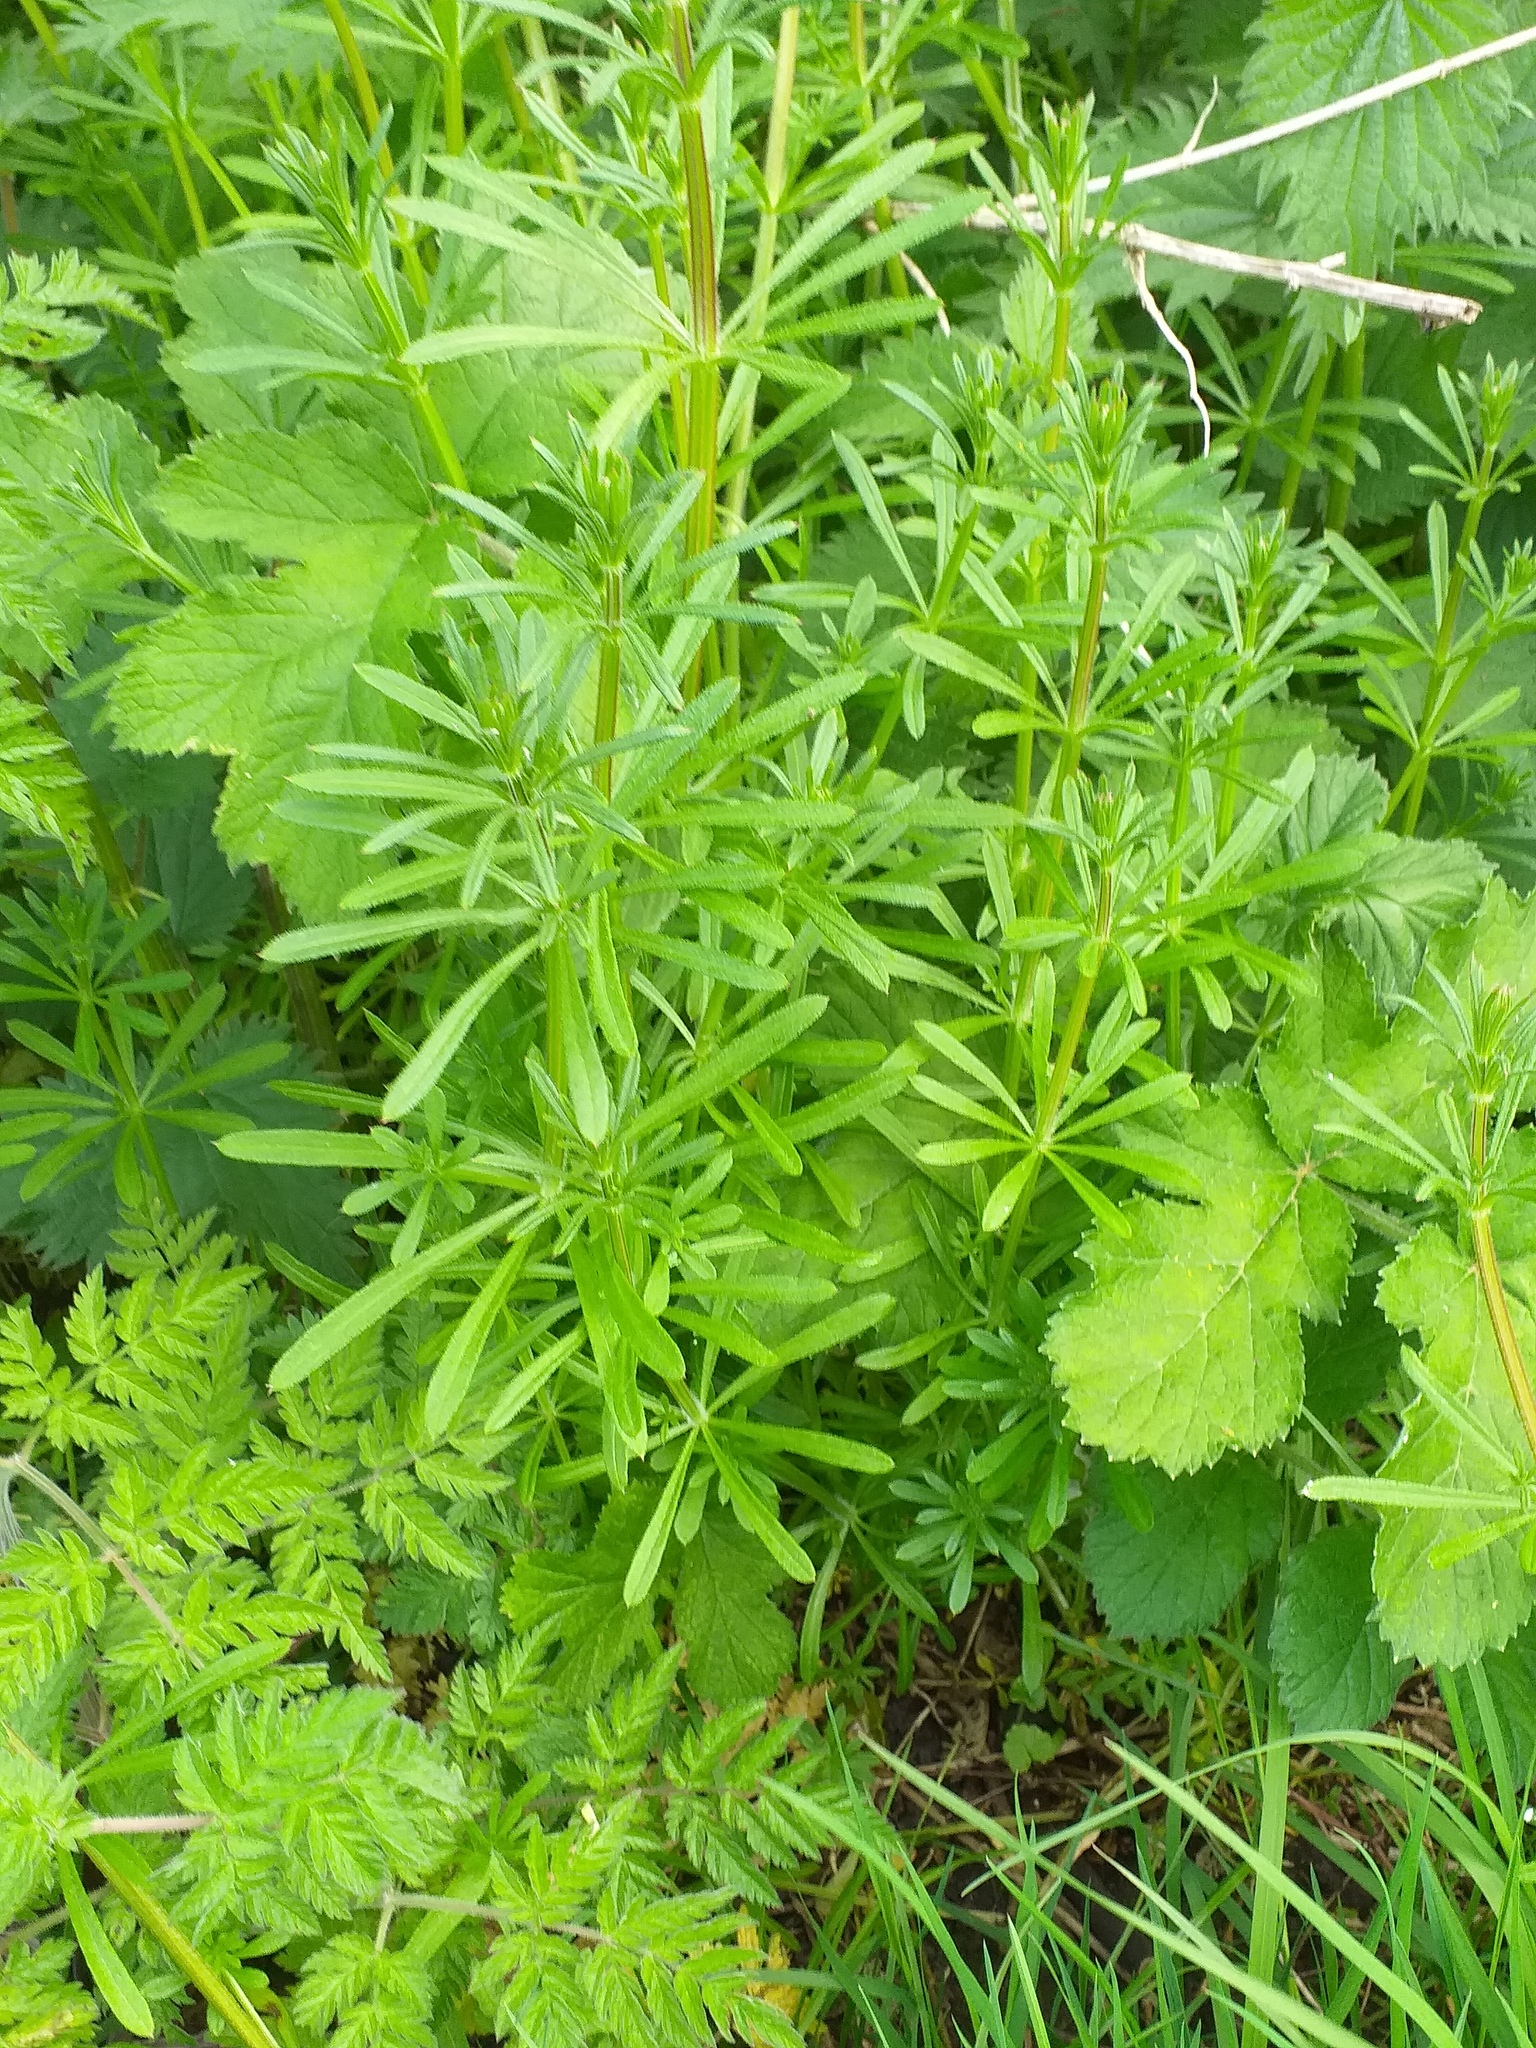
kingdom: Plantae
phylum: Tracheophyta
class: Magnoliopsida
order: Gentianales
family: Rubiaceae
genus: Galium
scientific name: Galium aparine
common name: Cleavers
